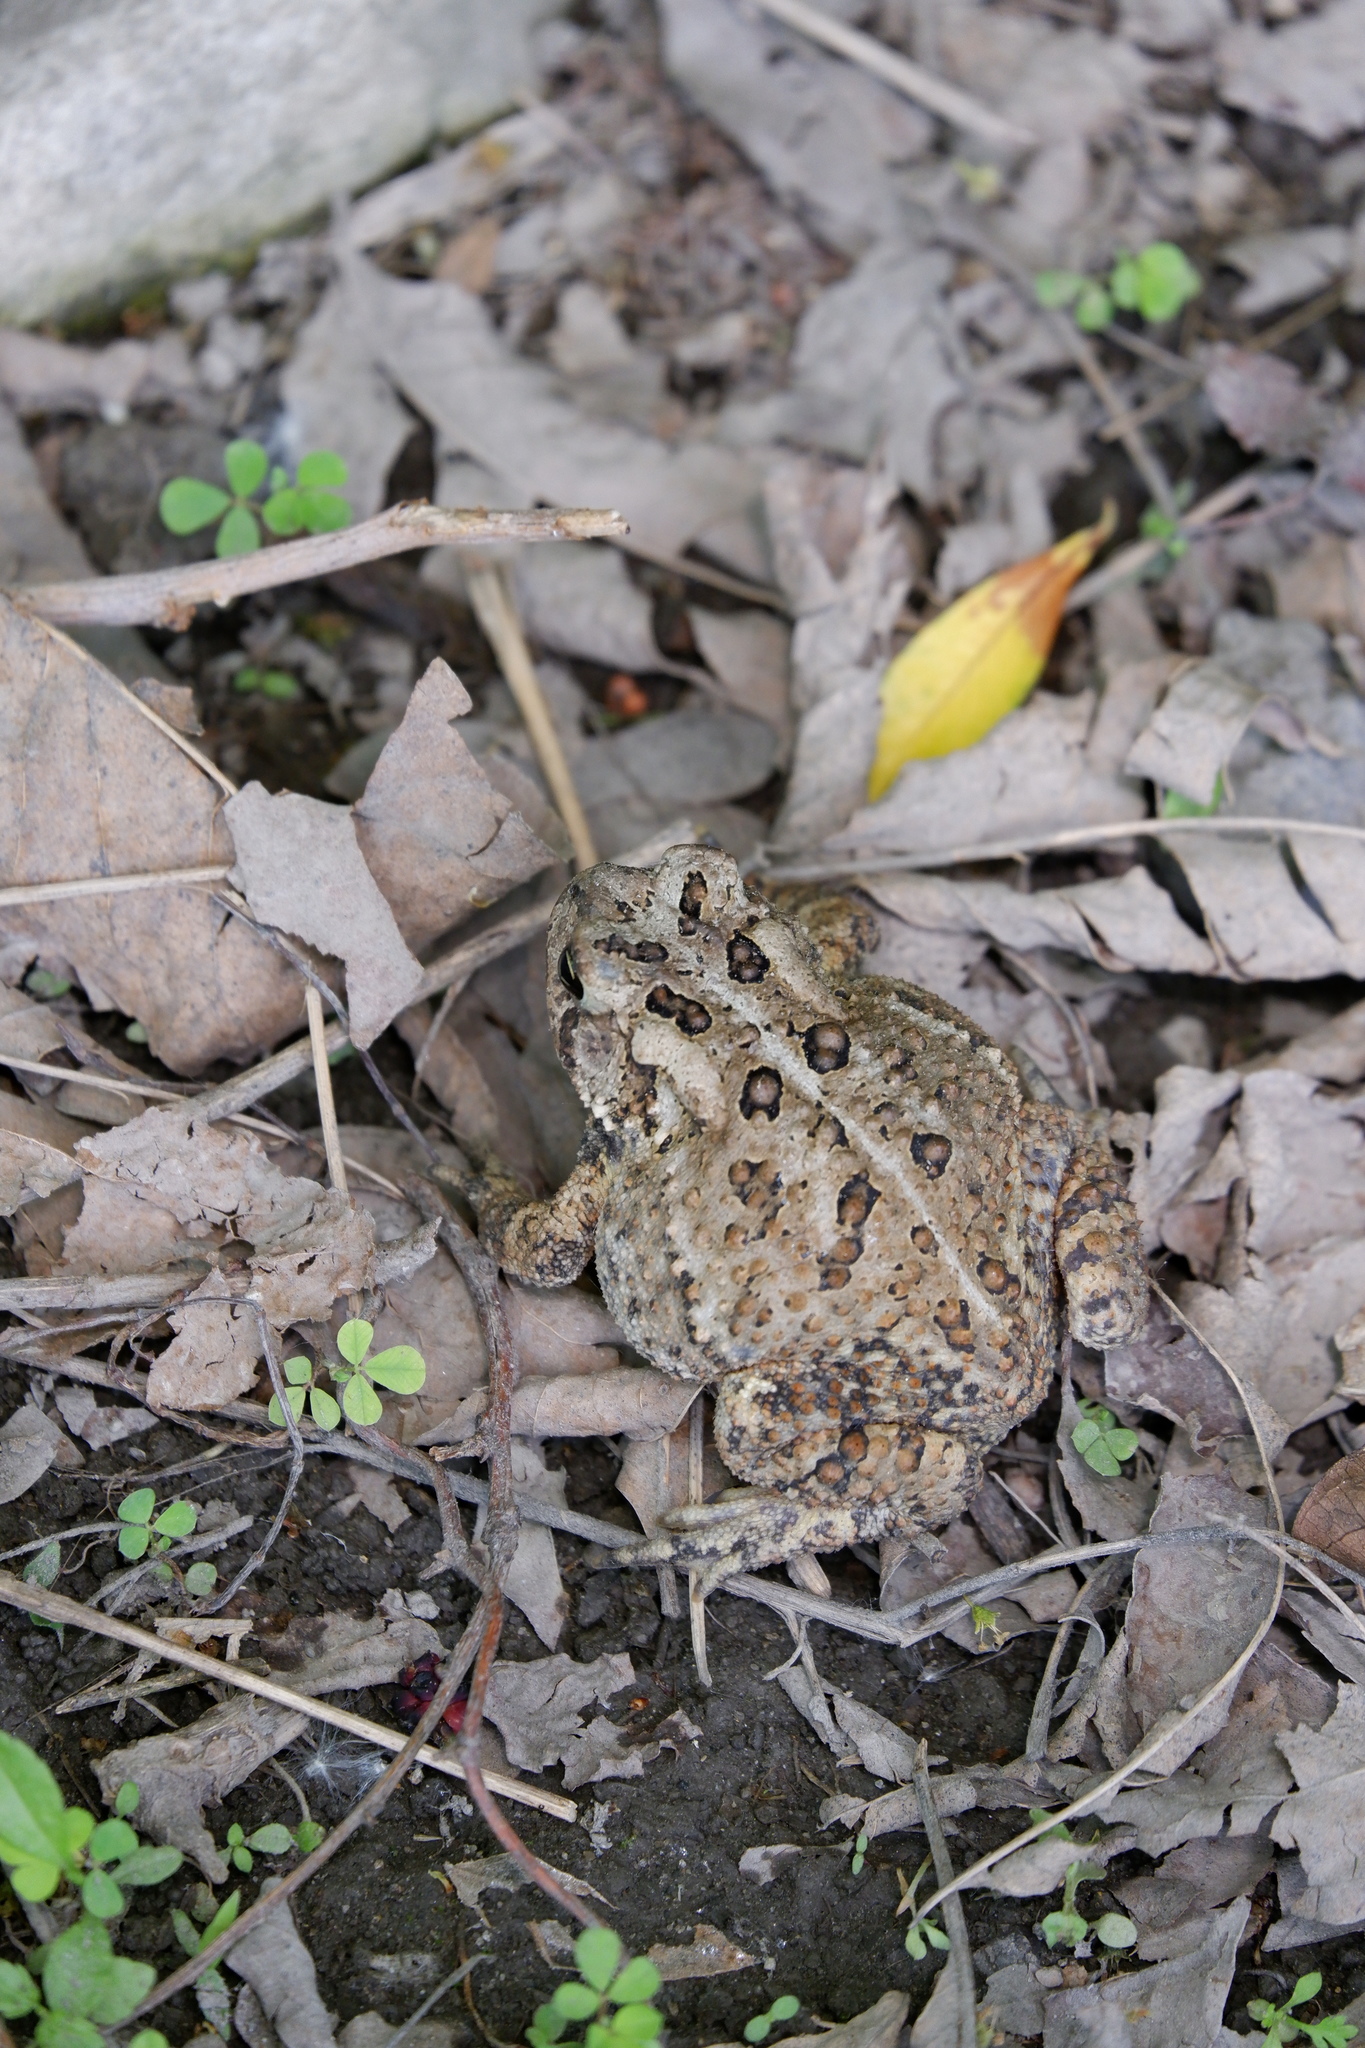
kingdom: Animalia
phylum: Chordata
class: Amphibia
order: Anura
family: Bufonidae
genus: Anaxyrus
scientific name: Anaxyrus americanus
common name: American toad
